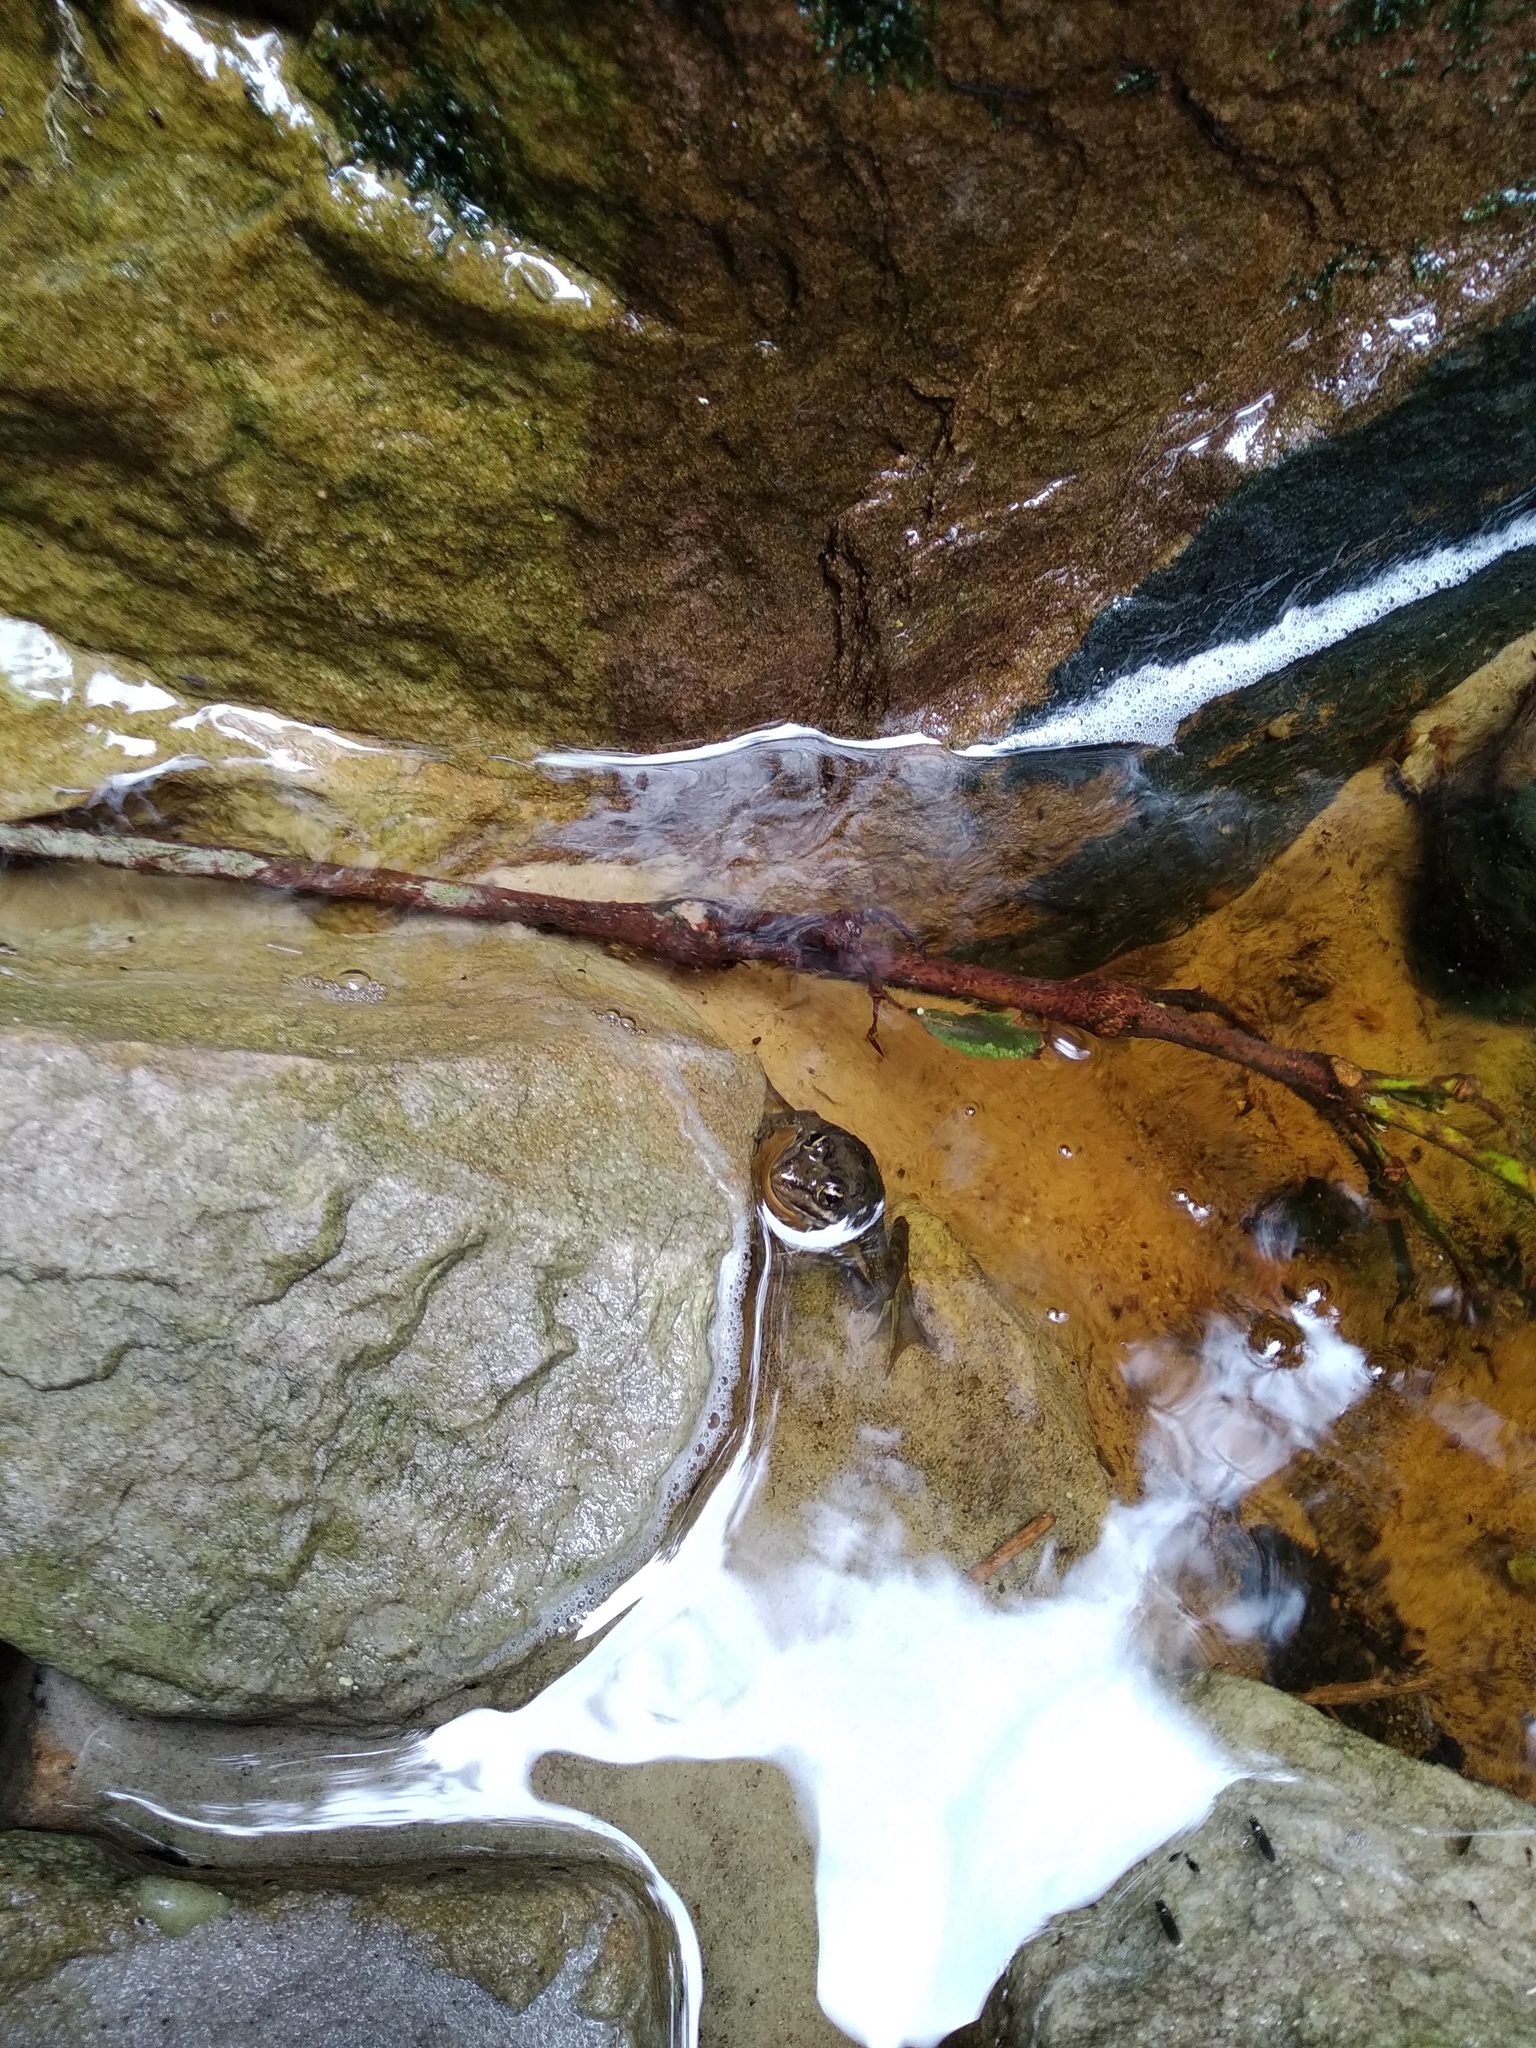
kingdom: Animalia
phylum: Chordata
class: Amphibia
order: Anura
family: Pyxicephalidae
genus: Amietia
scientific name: Amietia fuscigula
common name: Cape rana
